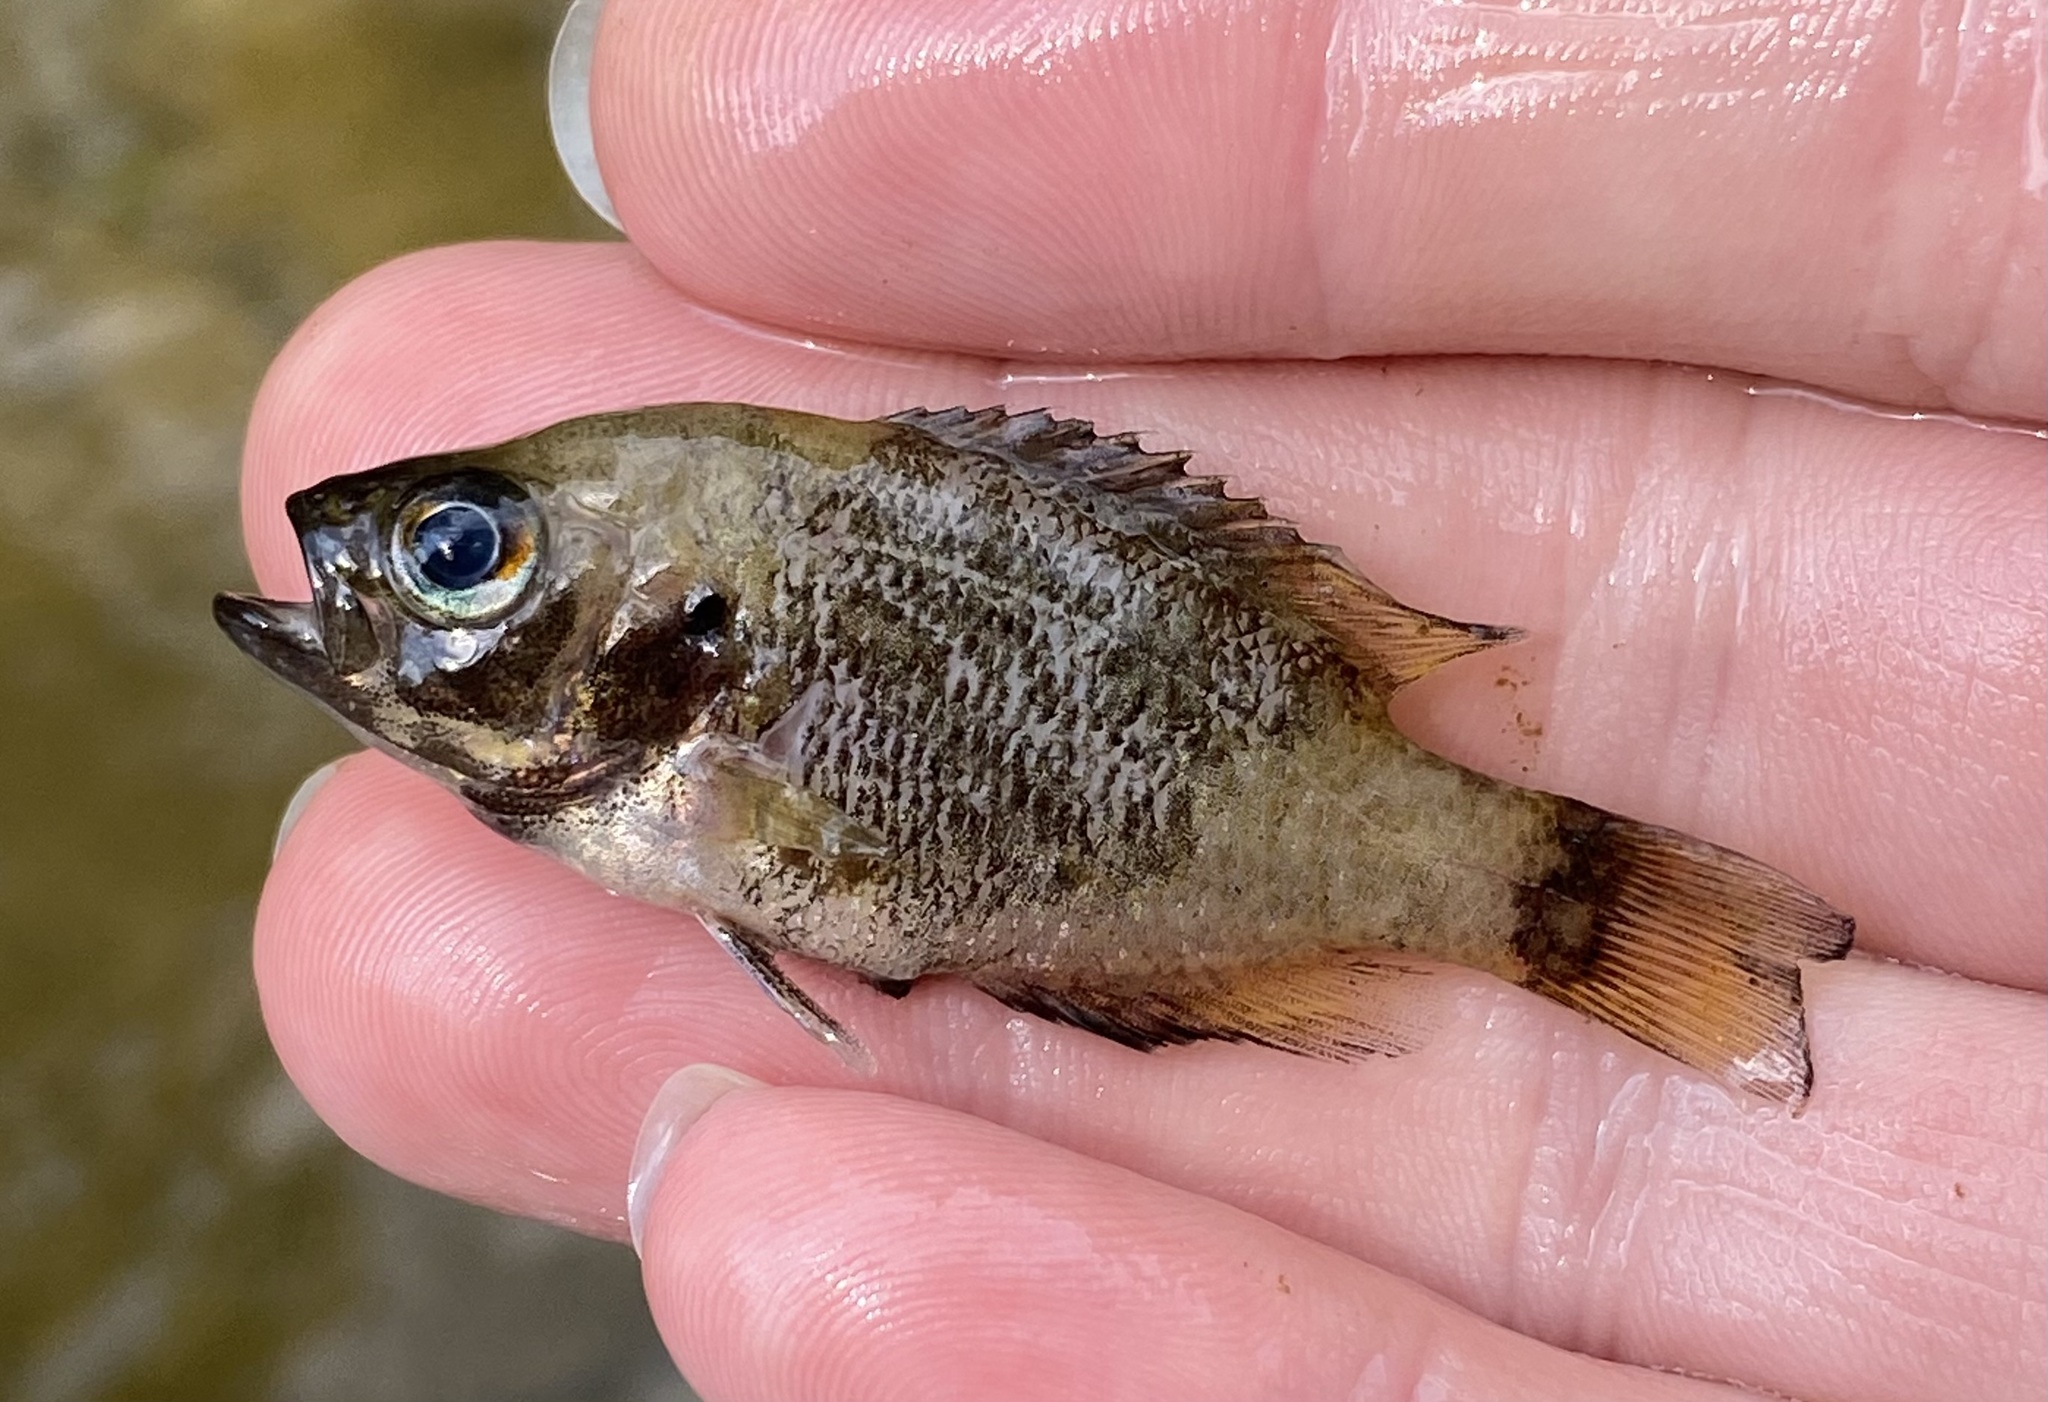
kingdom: Animalia
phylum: Chordata
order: Perciformes
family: Centrarchidae
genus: Ambloplites
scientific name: Ambloplites rupestris
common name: Rock bass
